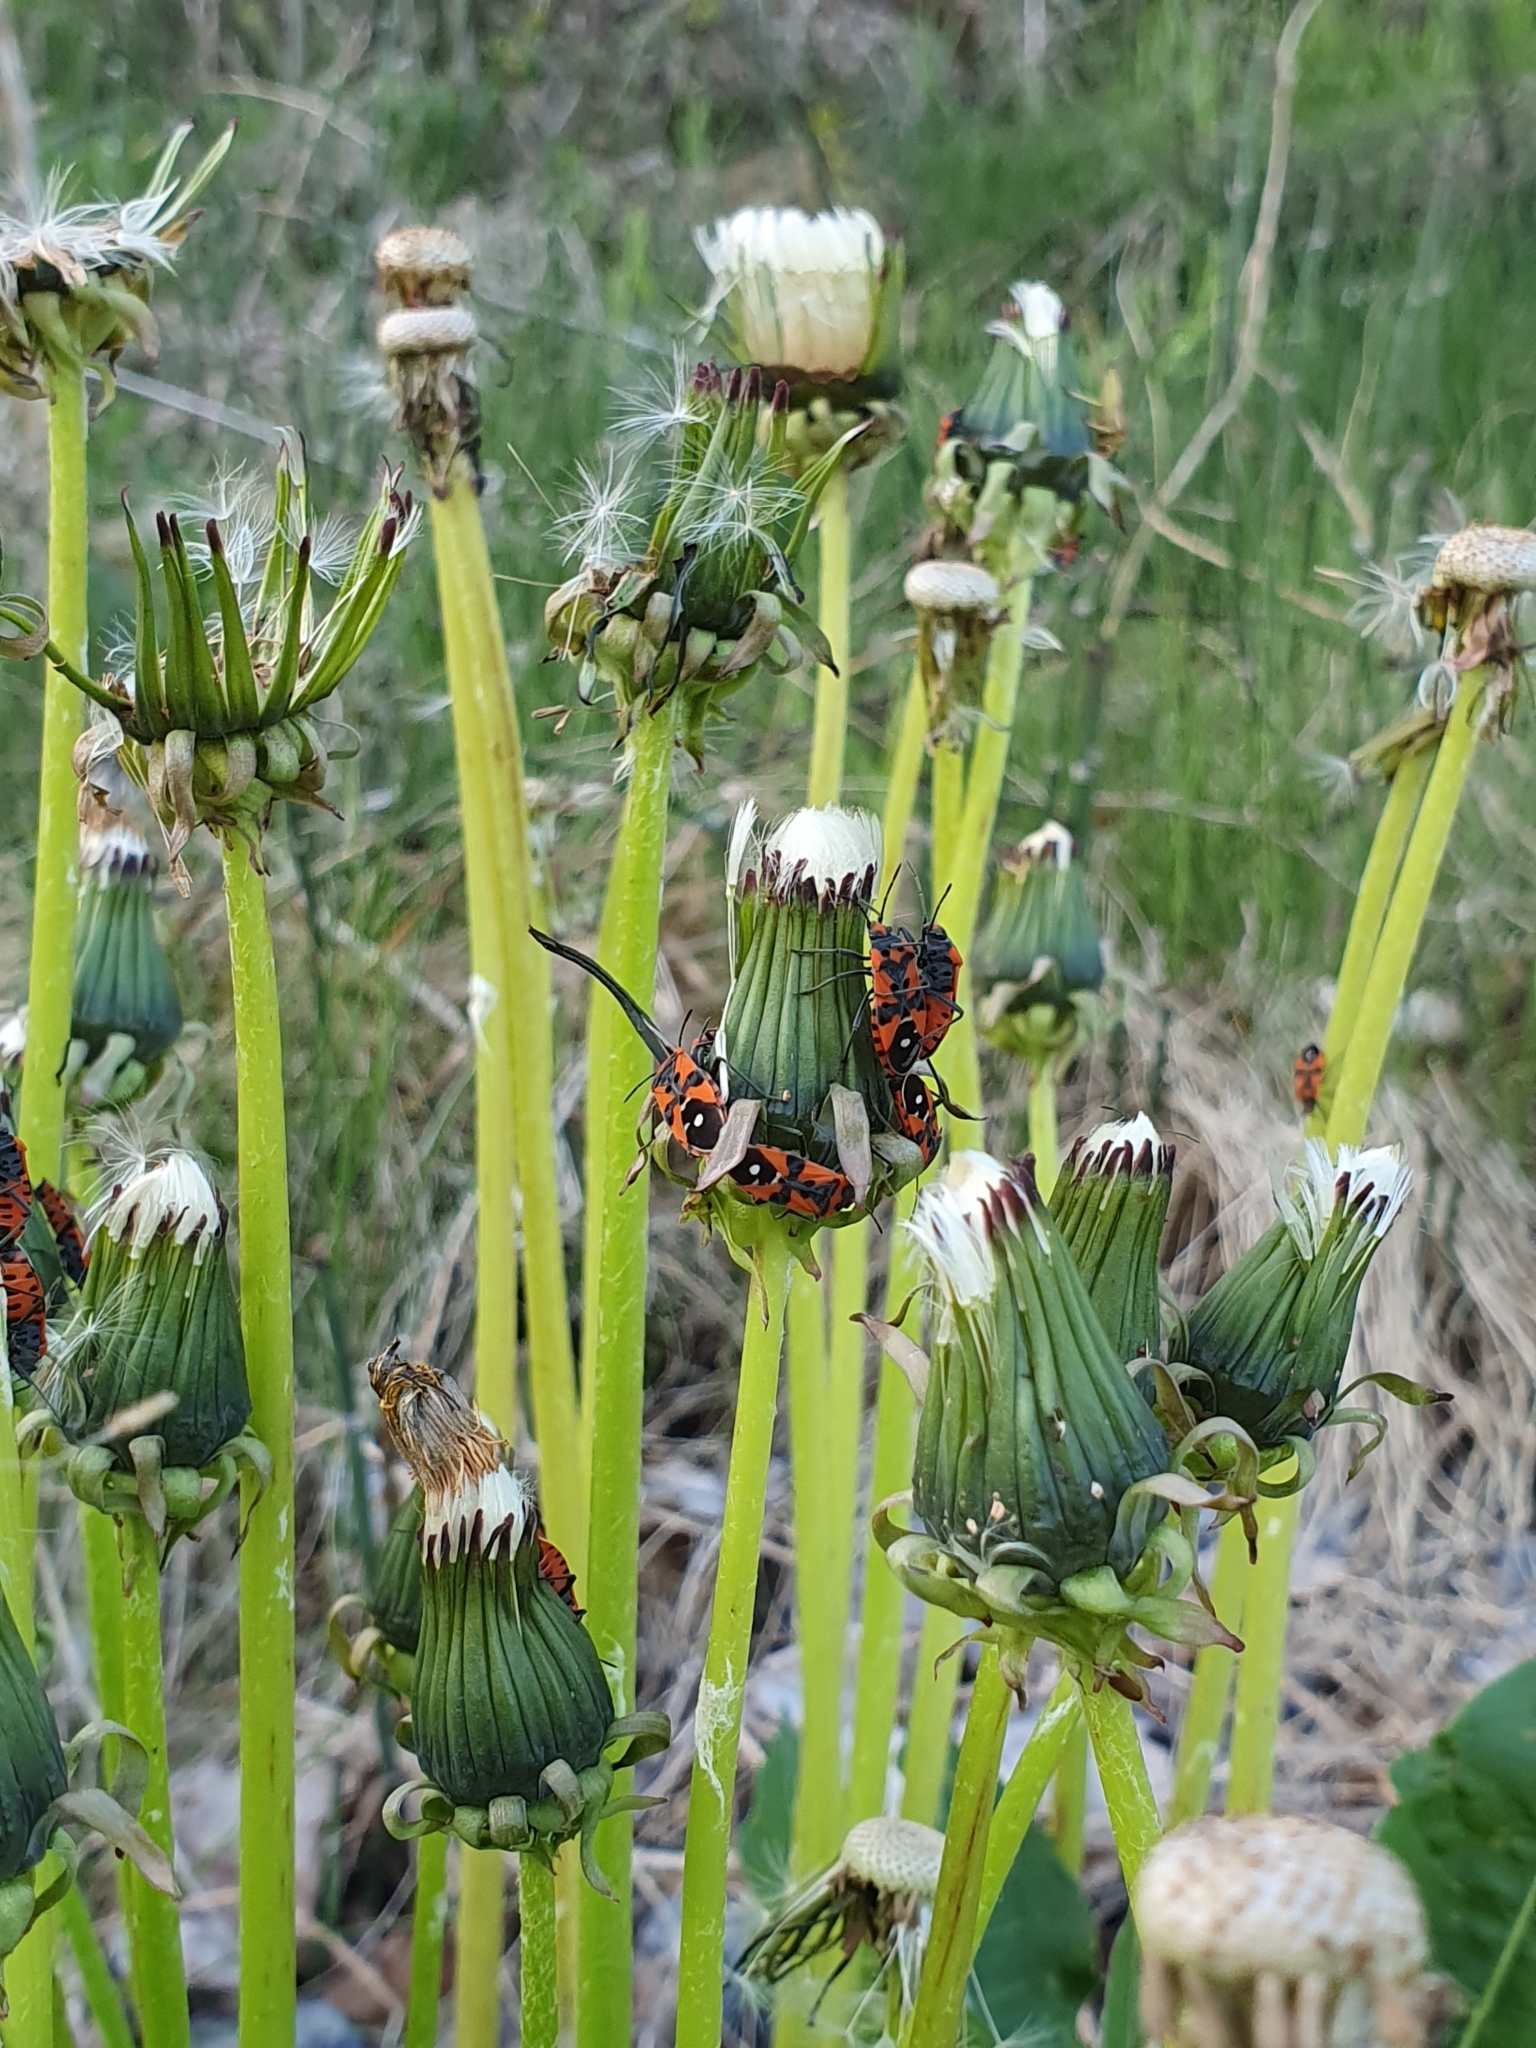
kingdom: Animalia
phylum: Arthropoda
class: Insecta
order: Hemiptera
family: Lygaeidae
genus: Lygaeus
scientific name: Lygaeus equestris
